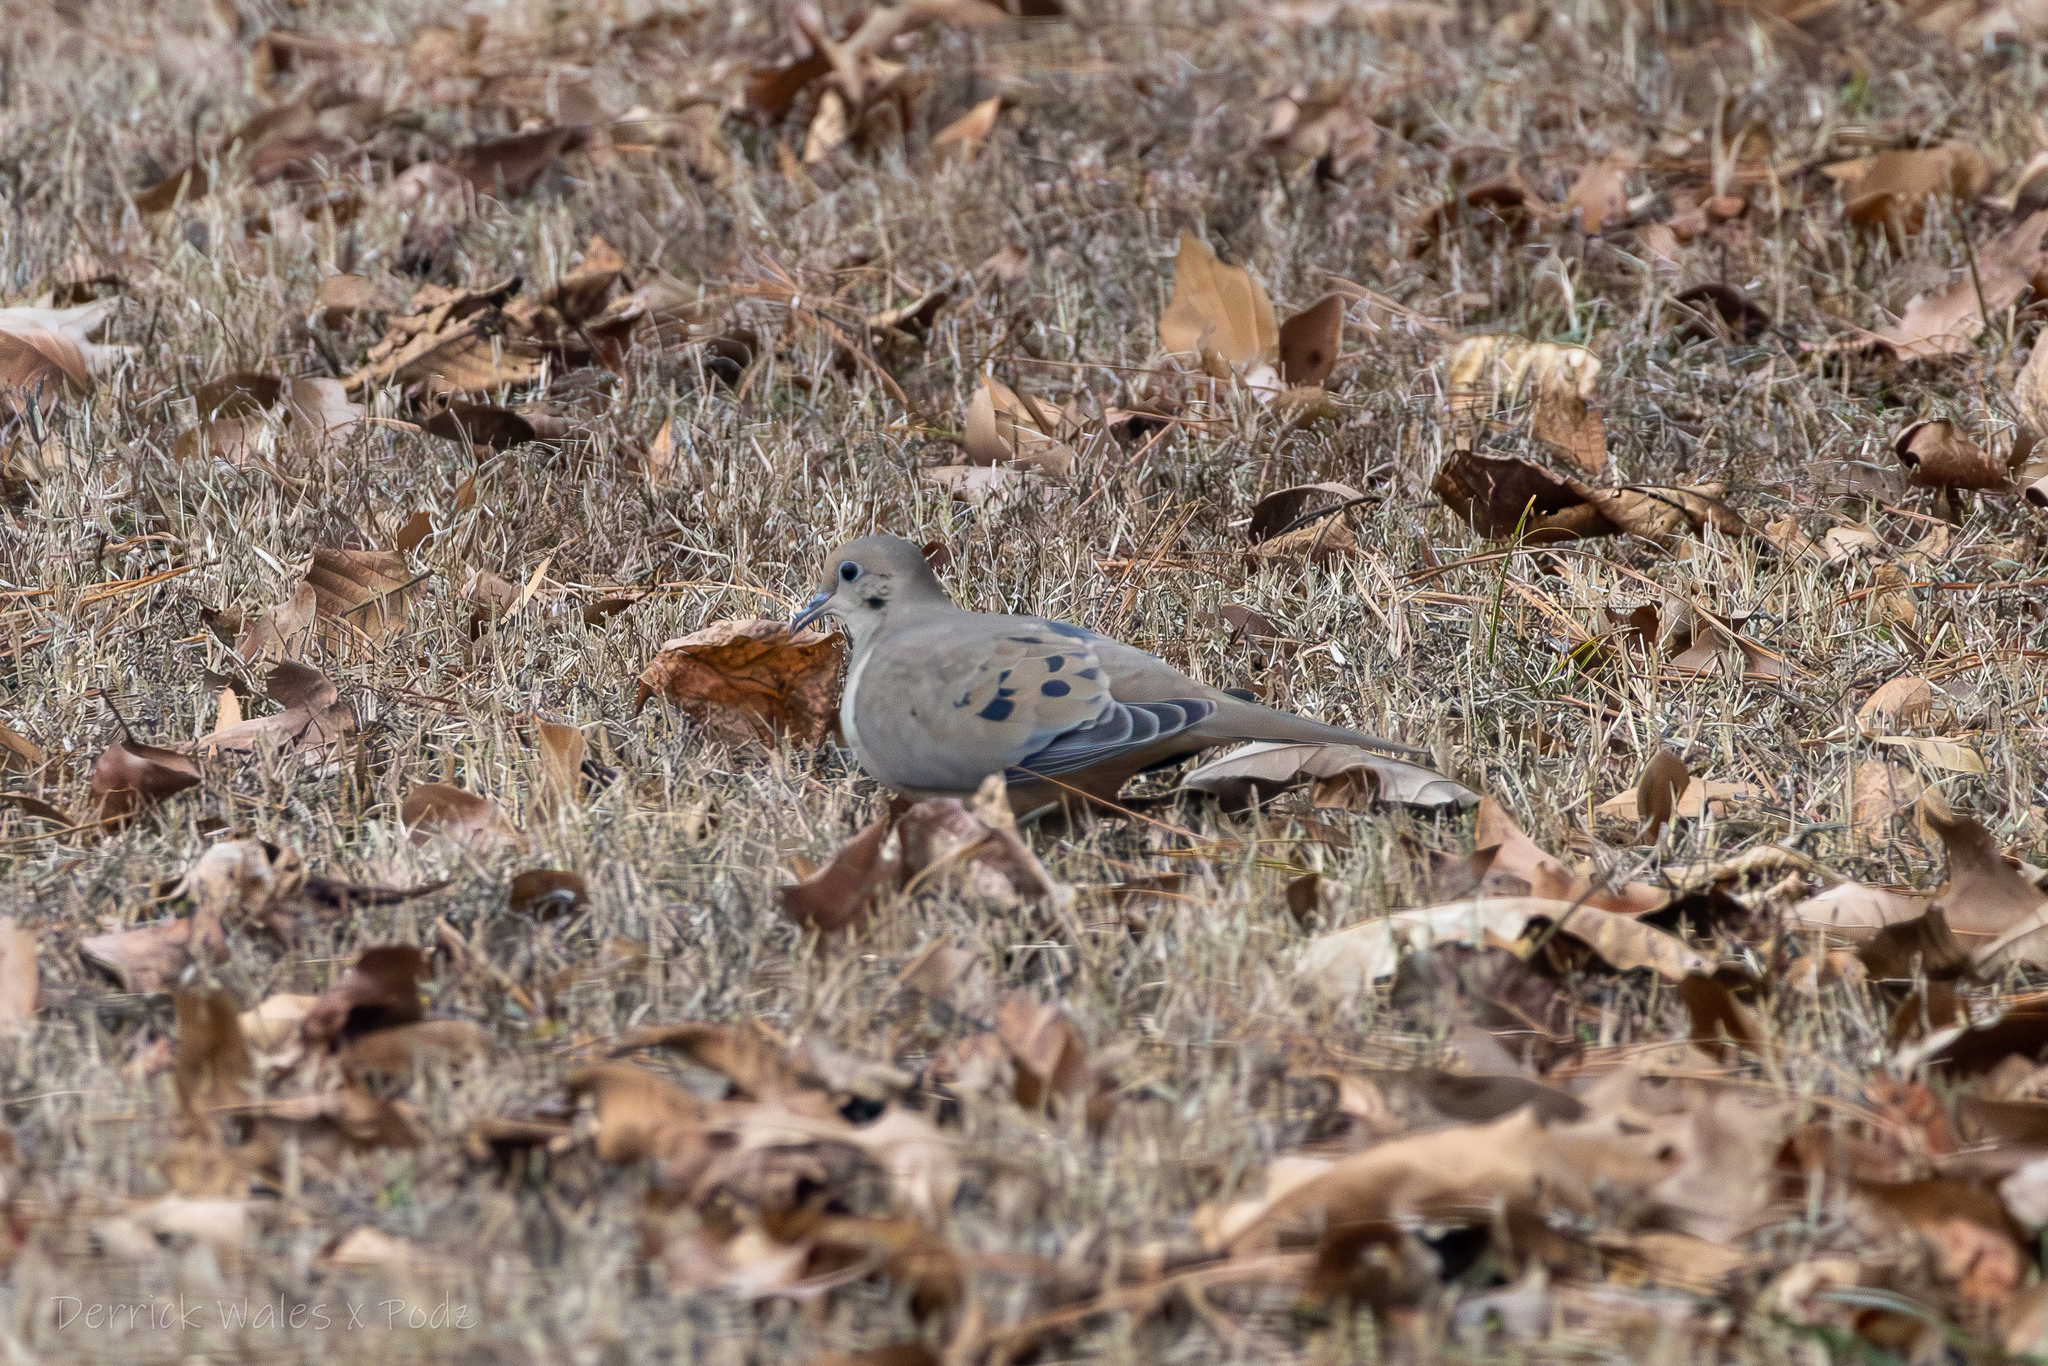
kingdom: Animalia
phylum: Chordata
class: Aves
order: Columbiformes
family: Columbidae
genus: Zenaida
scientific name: Zenaida macroura
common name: Mourning dove
